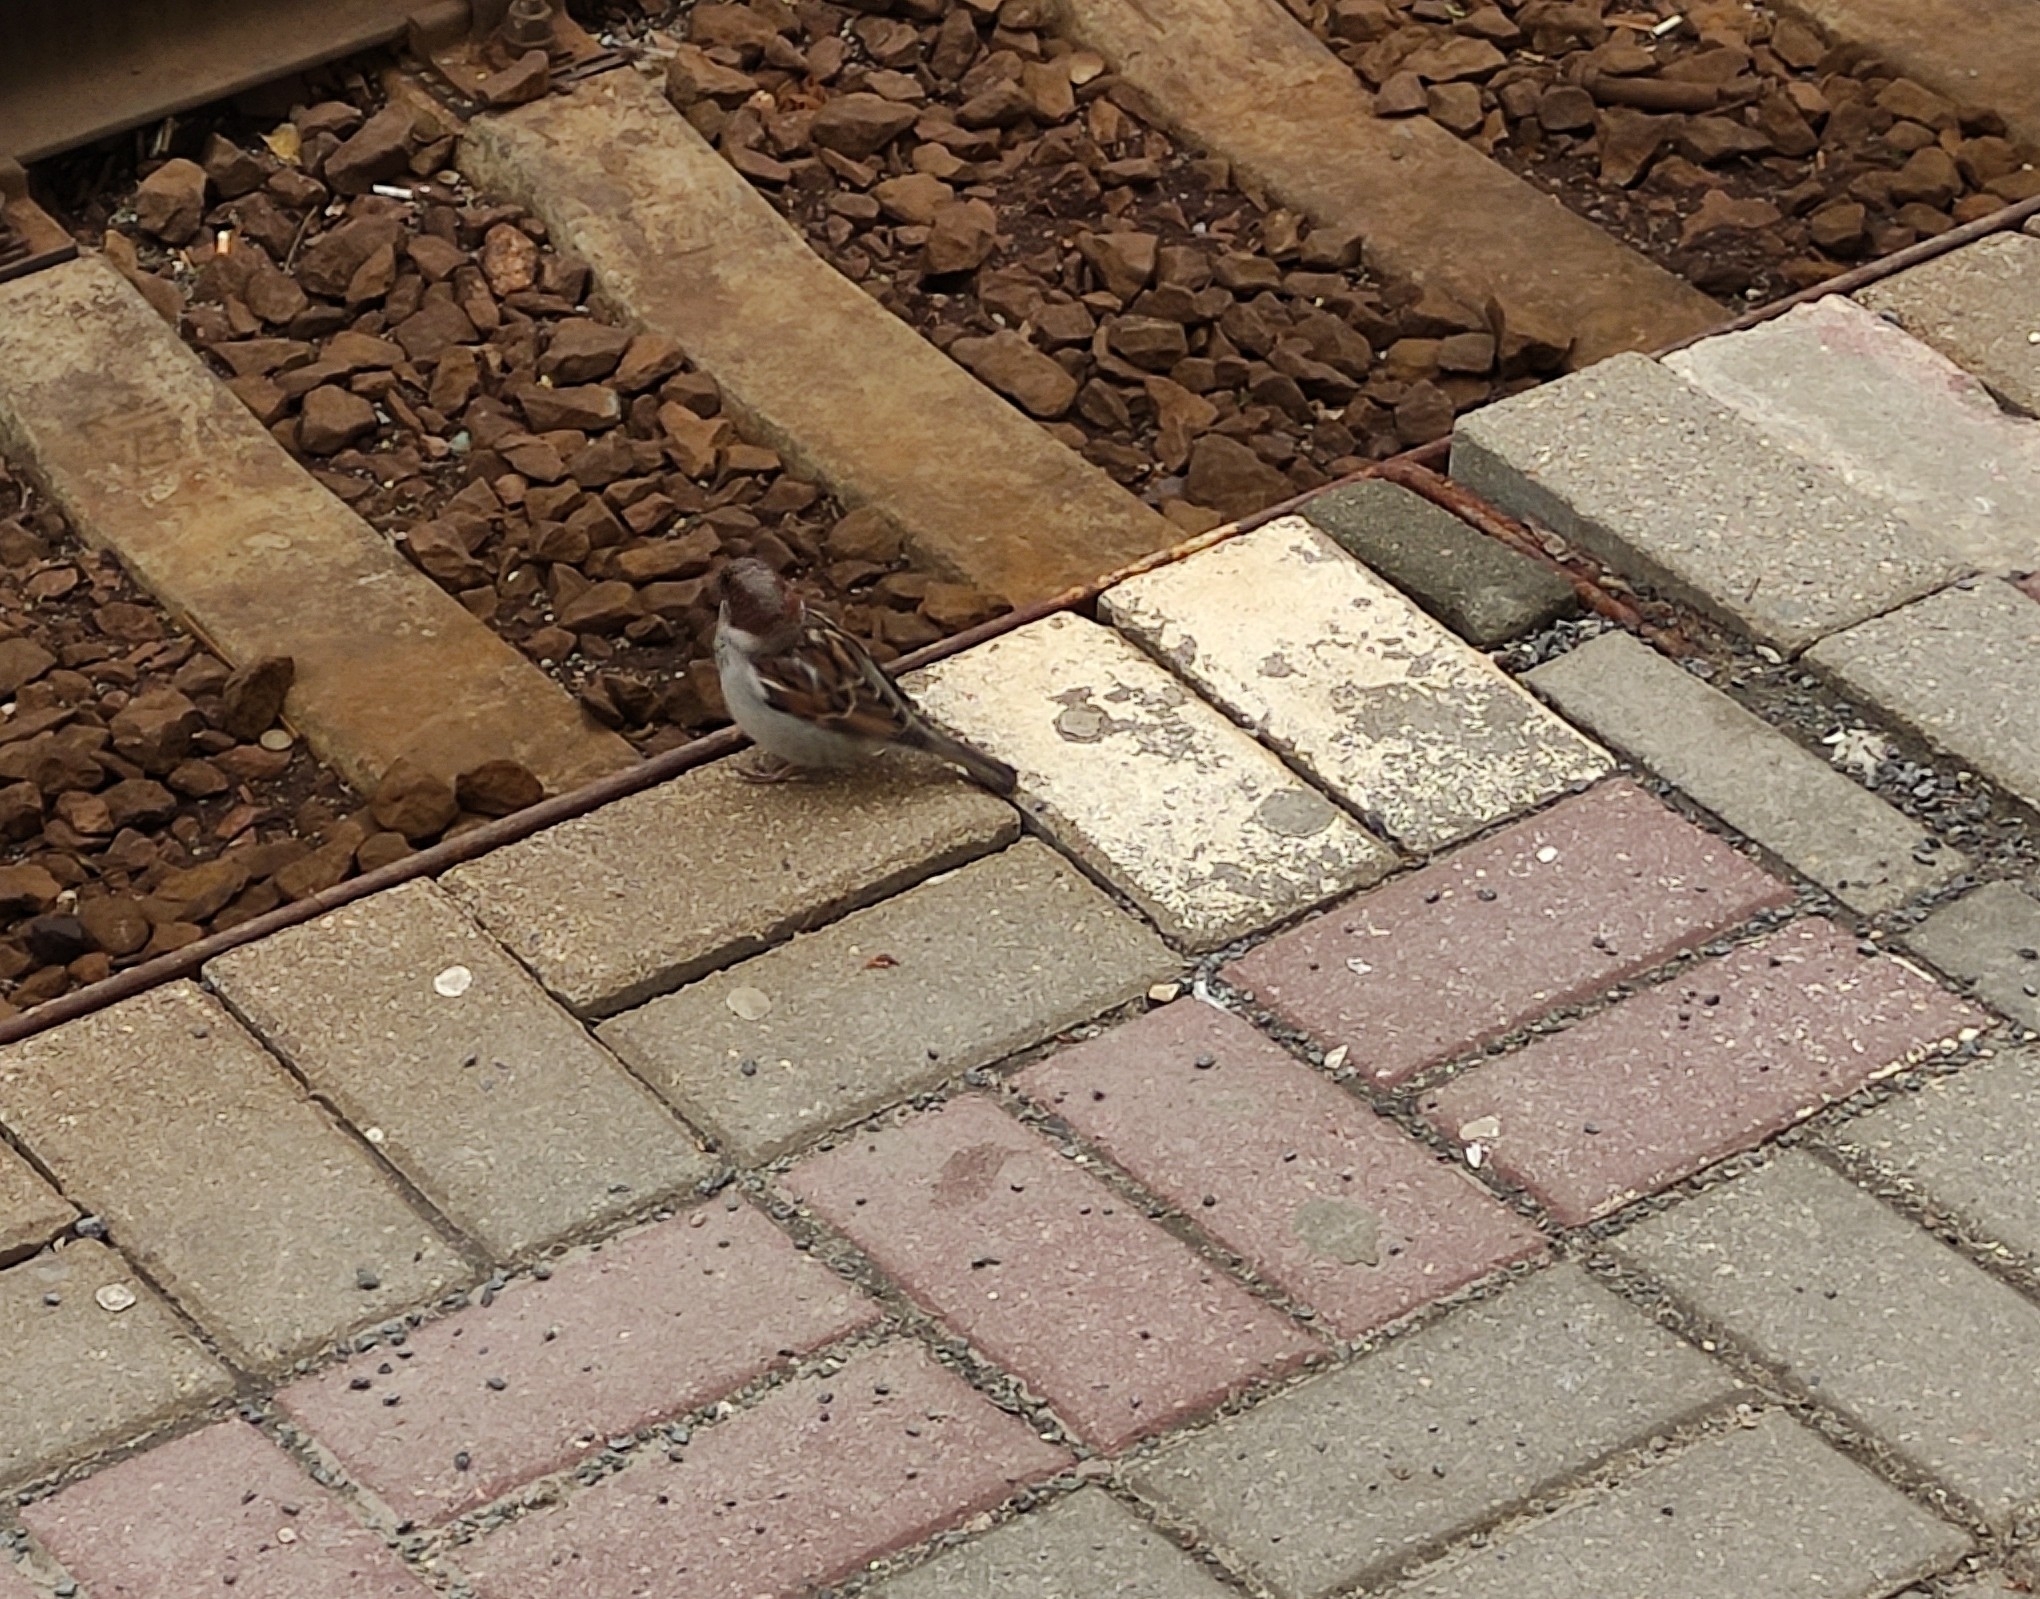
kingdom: Animalia
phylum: Chordata
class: Aves
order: Passeriformes
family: Passeridae
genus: Passer
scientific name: Passer domesticus
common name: House sparrow
